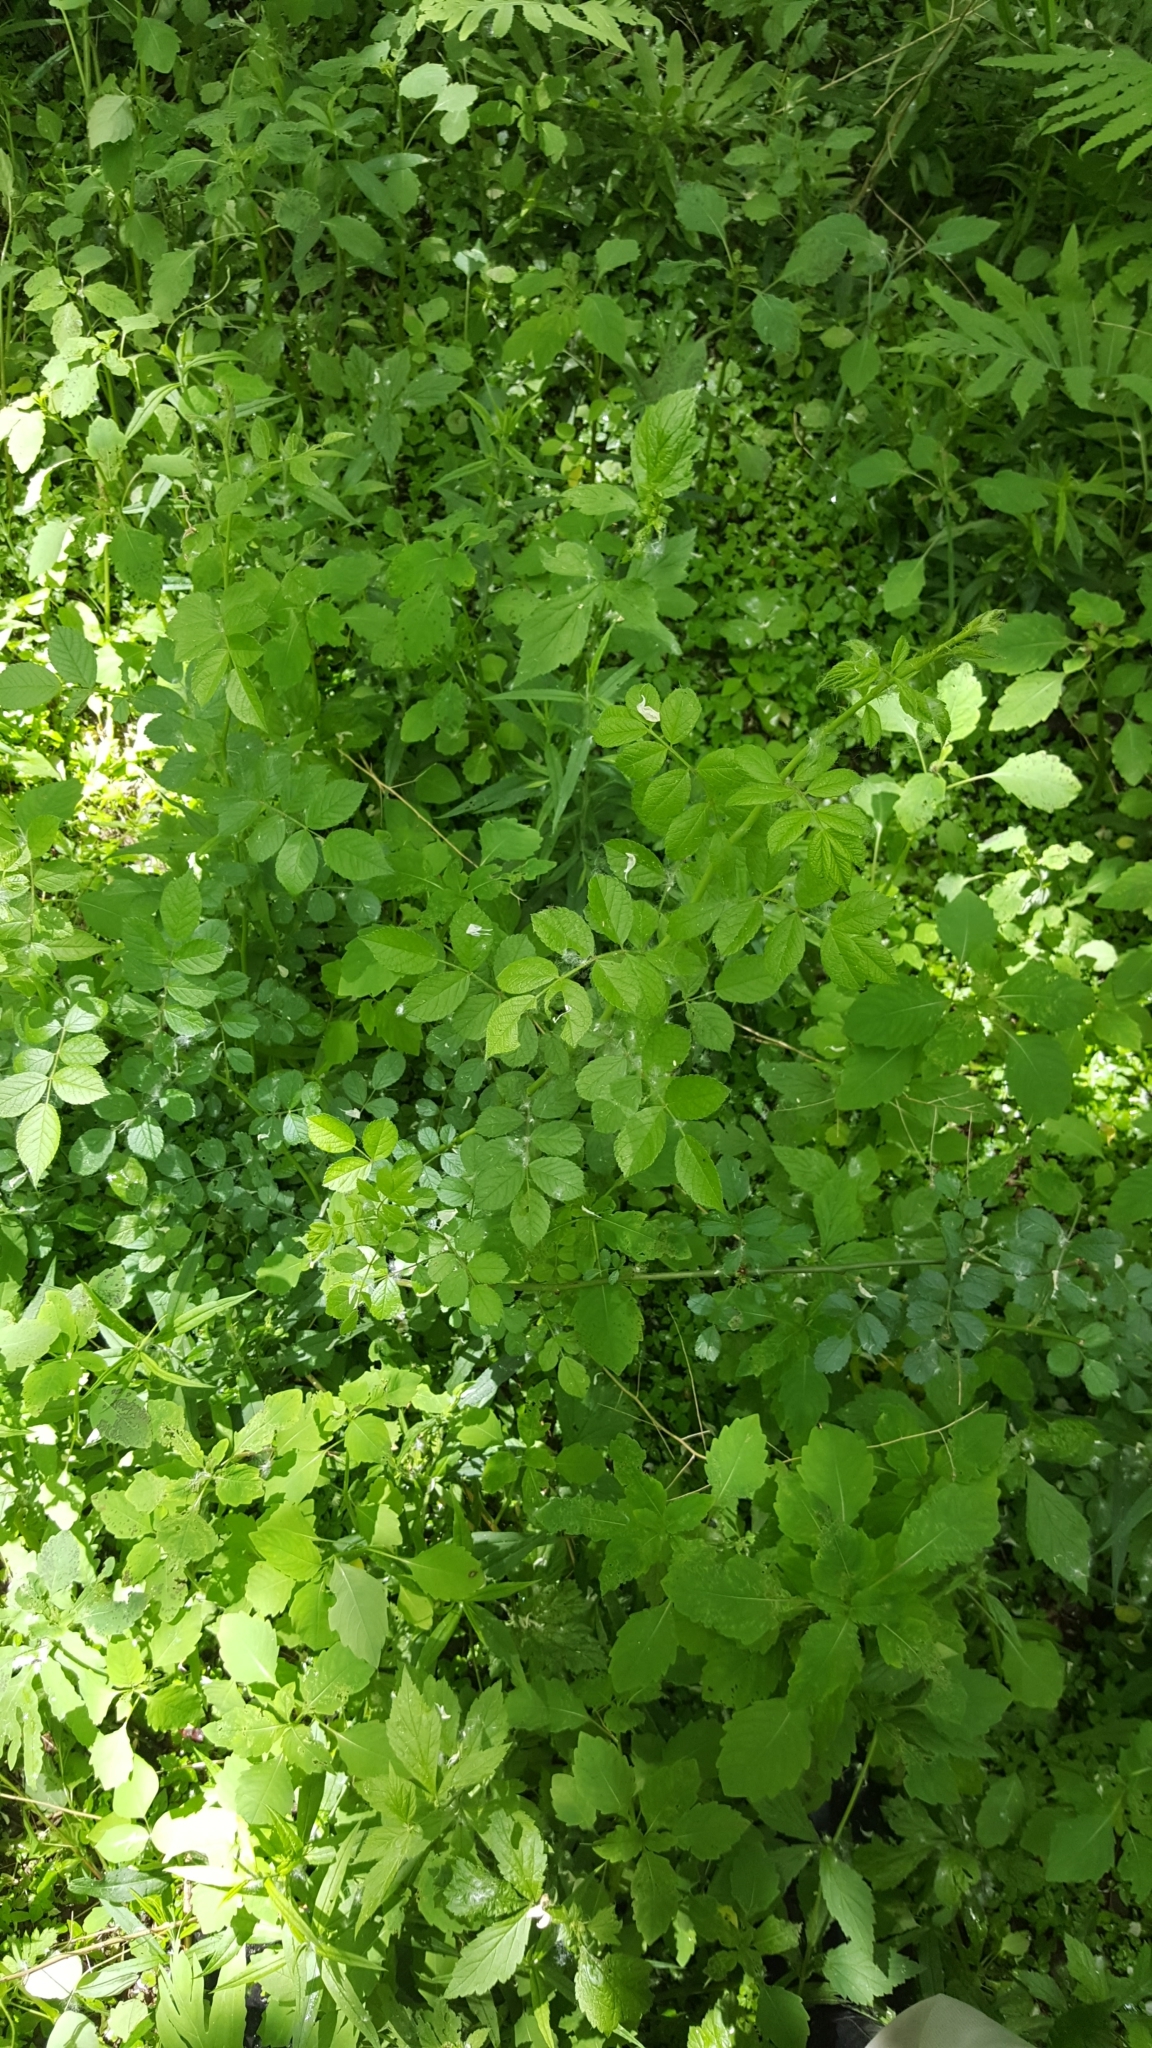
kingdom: Plantae
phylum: Tracheophyta
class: Magnoliopsida
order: Rosales
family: Rosaceae
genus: Rosa
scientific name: Rosa multiflora
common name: Multiflora rose
